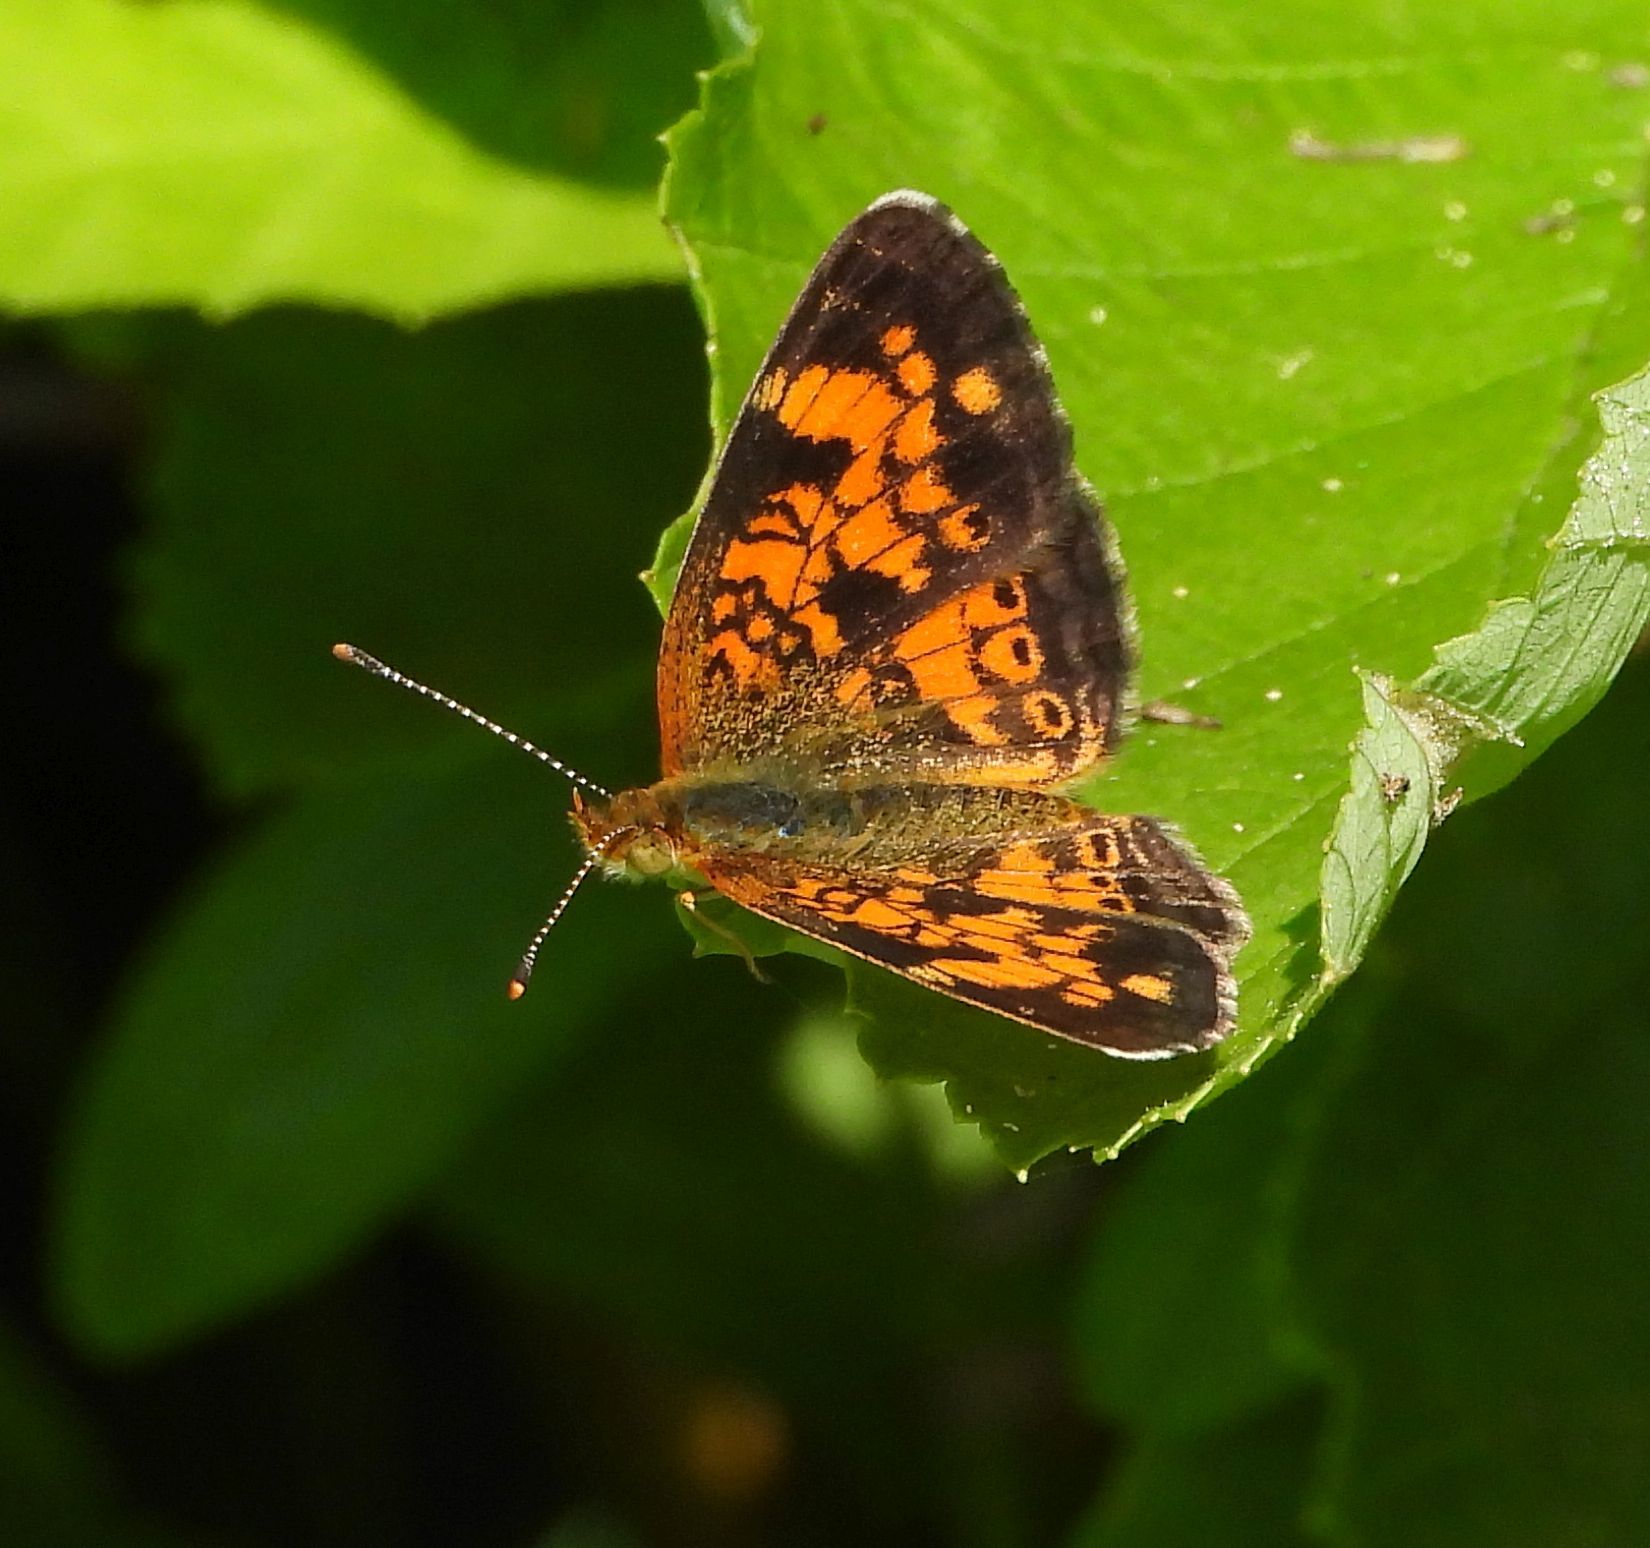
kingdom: Animalia
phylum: Arthropoda
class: Insecta
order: Lepidoptera
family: Nymphalidae
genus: Phyciodes
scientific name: Phyciodes tharos
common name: Pearl crescent
